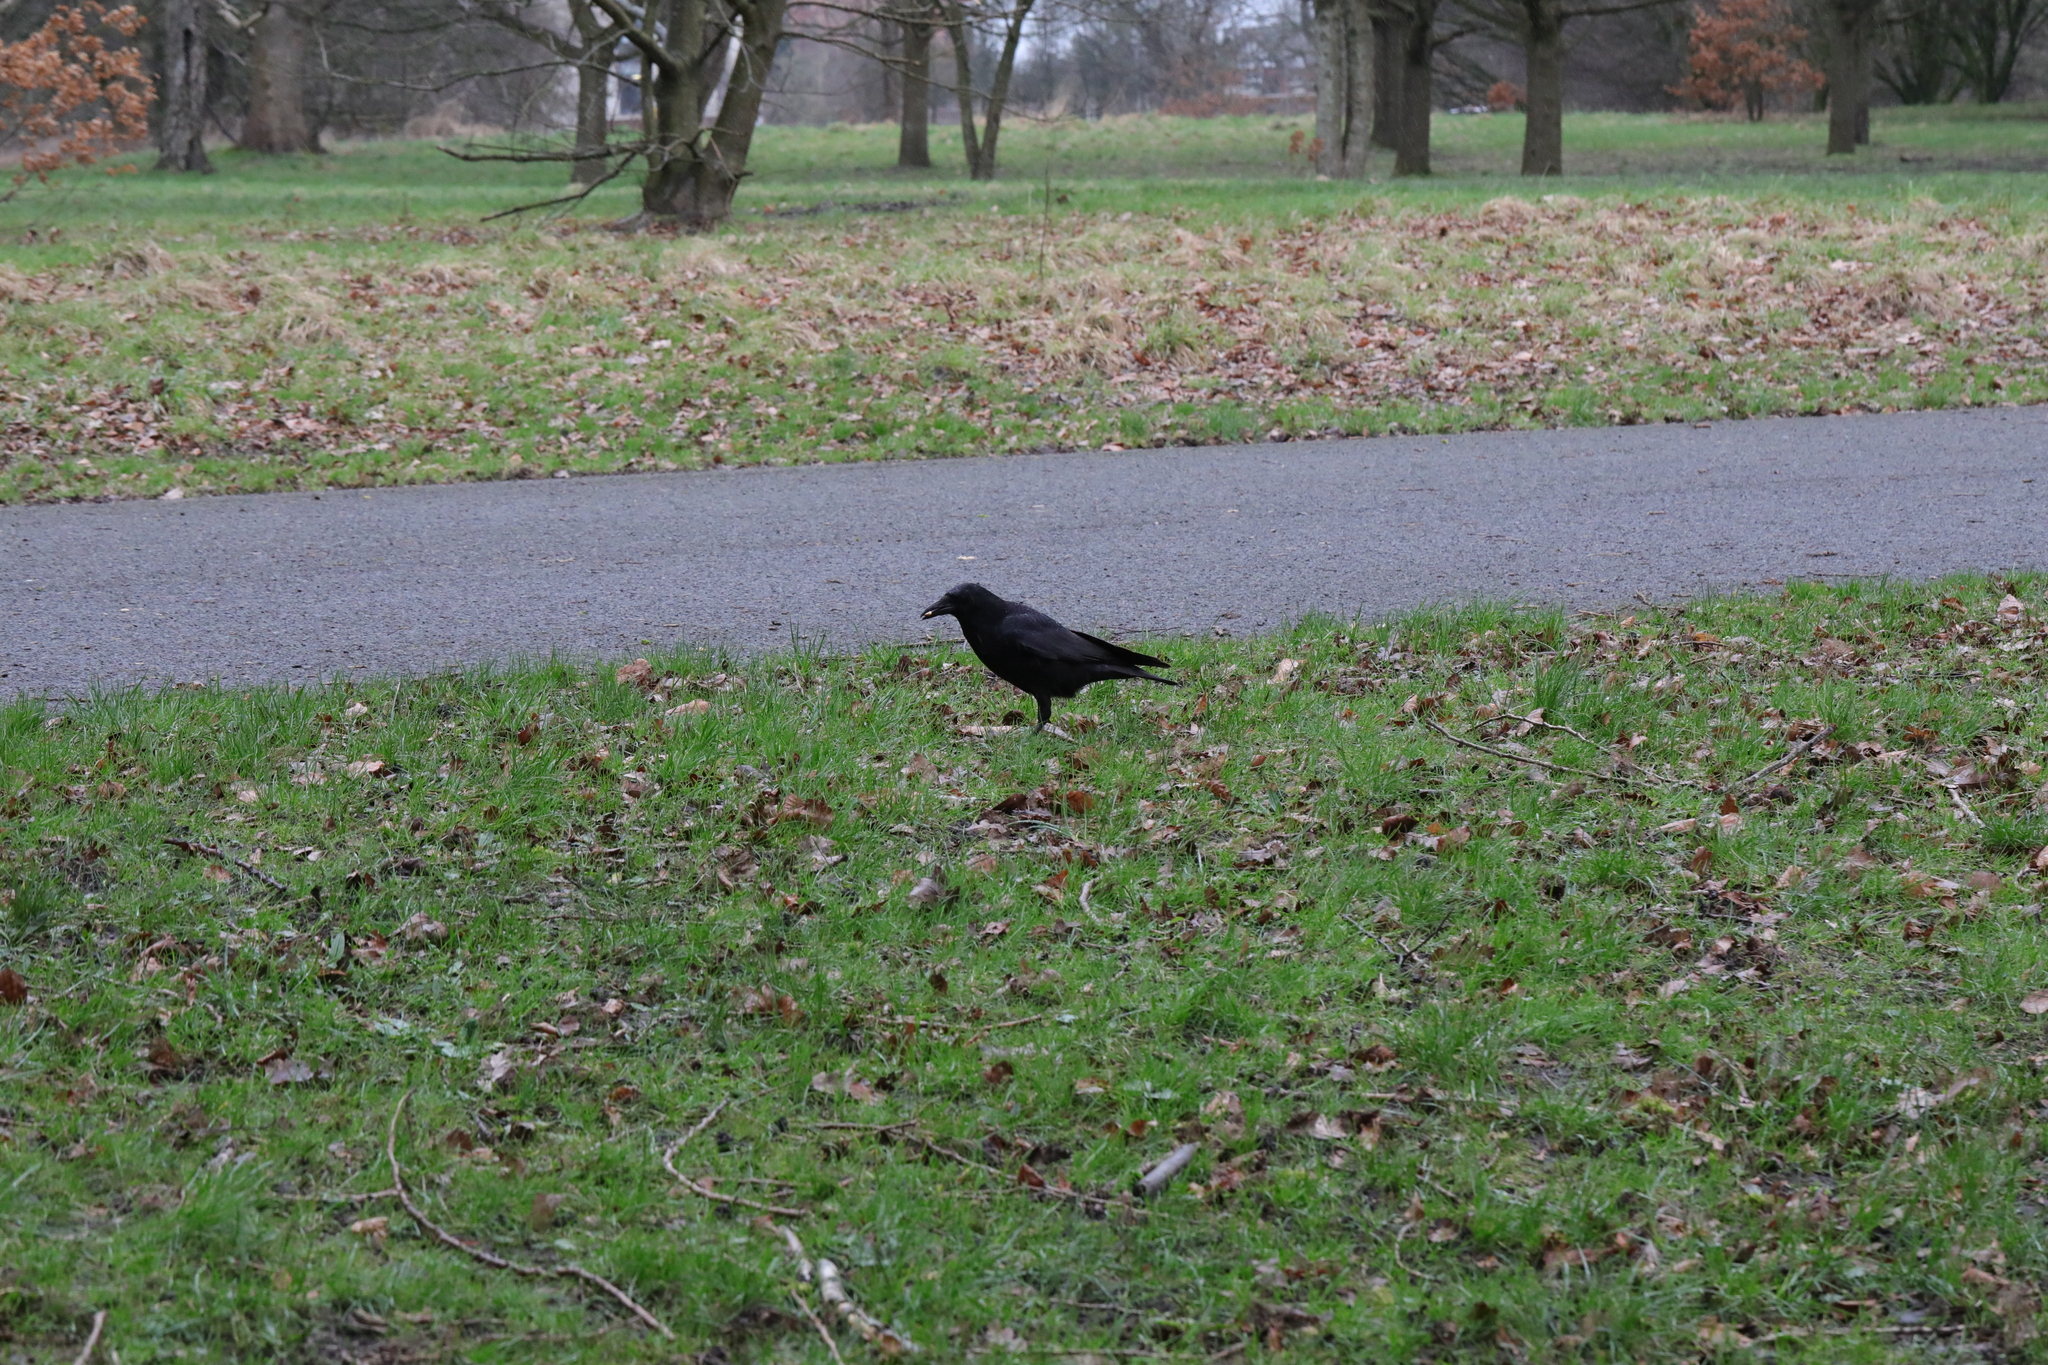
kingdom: Animalia
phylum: Chordata
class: Aves
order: Passeriformes
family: Corvidae
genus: Corvus
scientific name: Corvus corone
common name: Carrion crow
